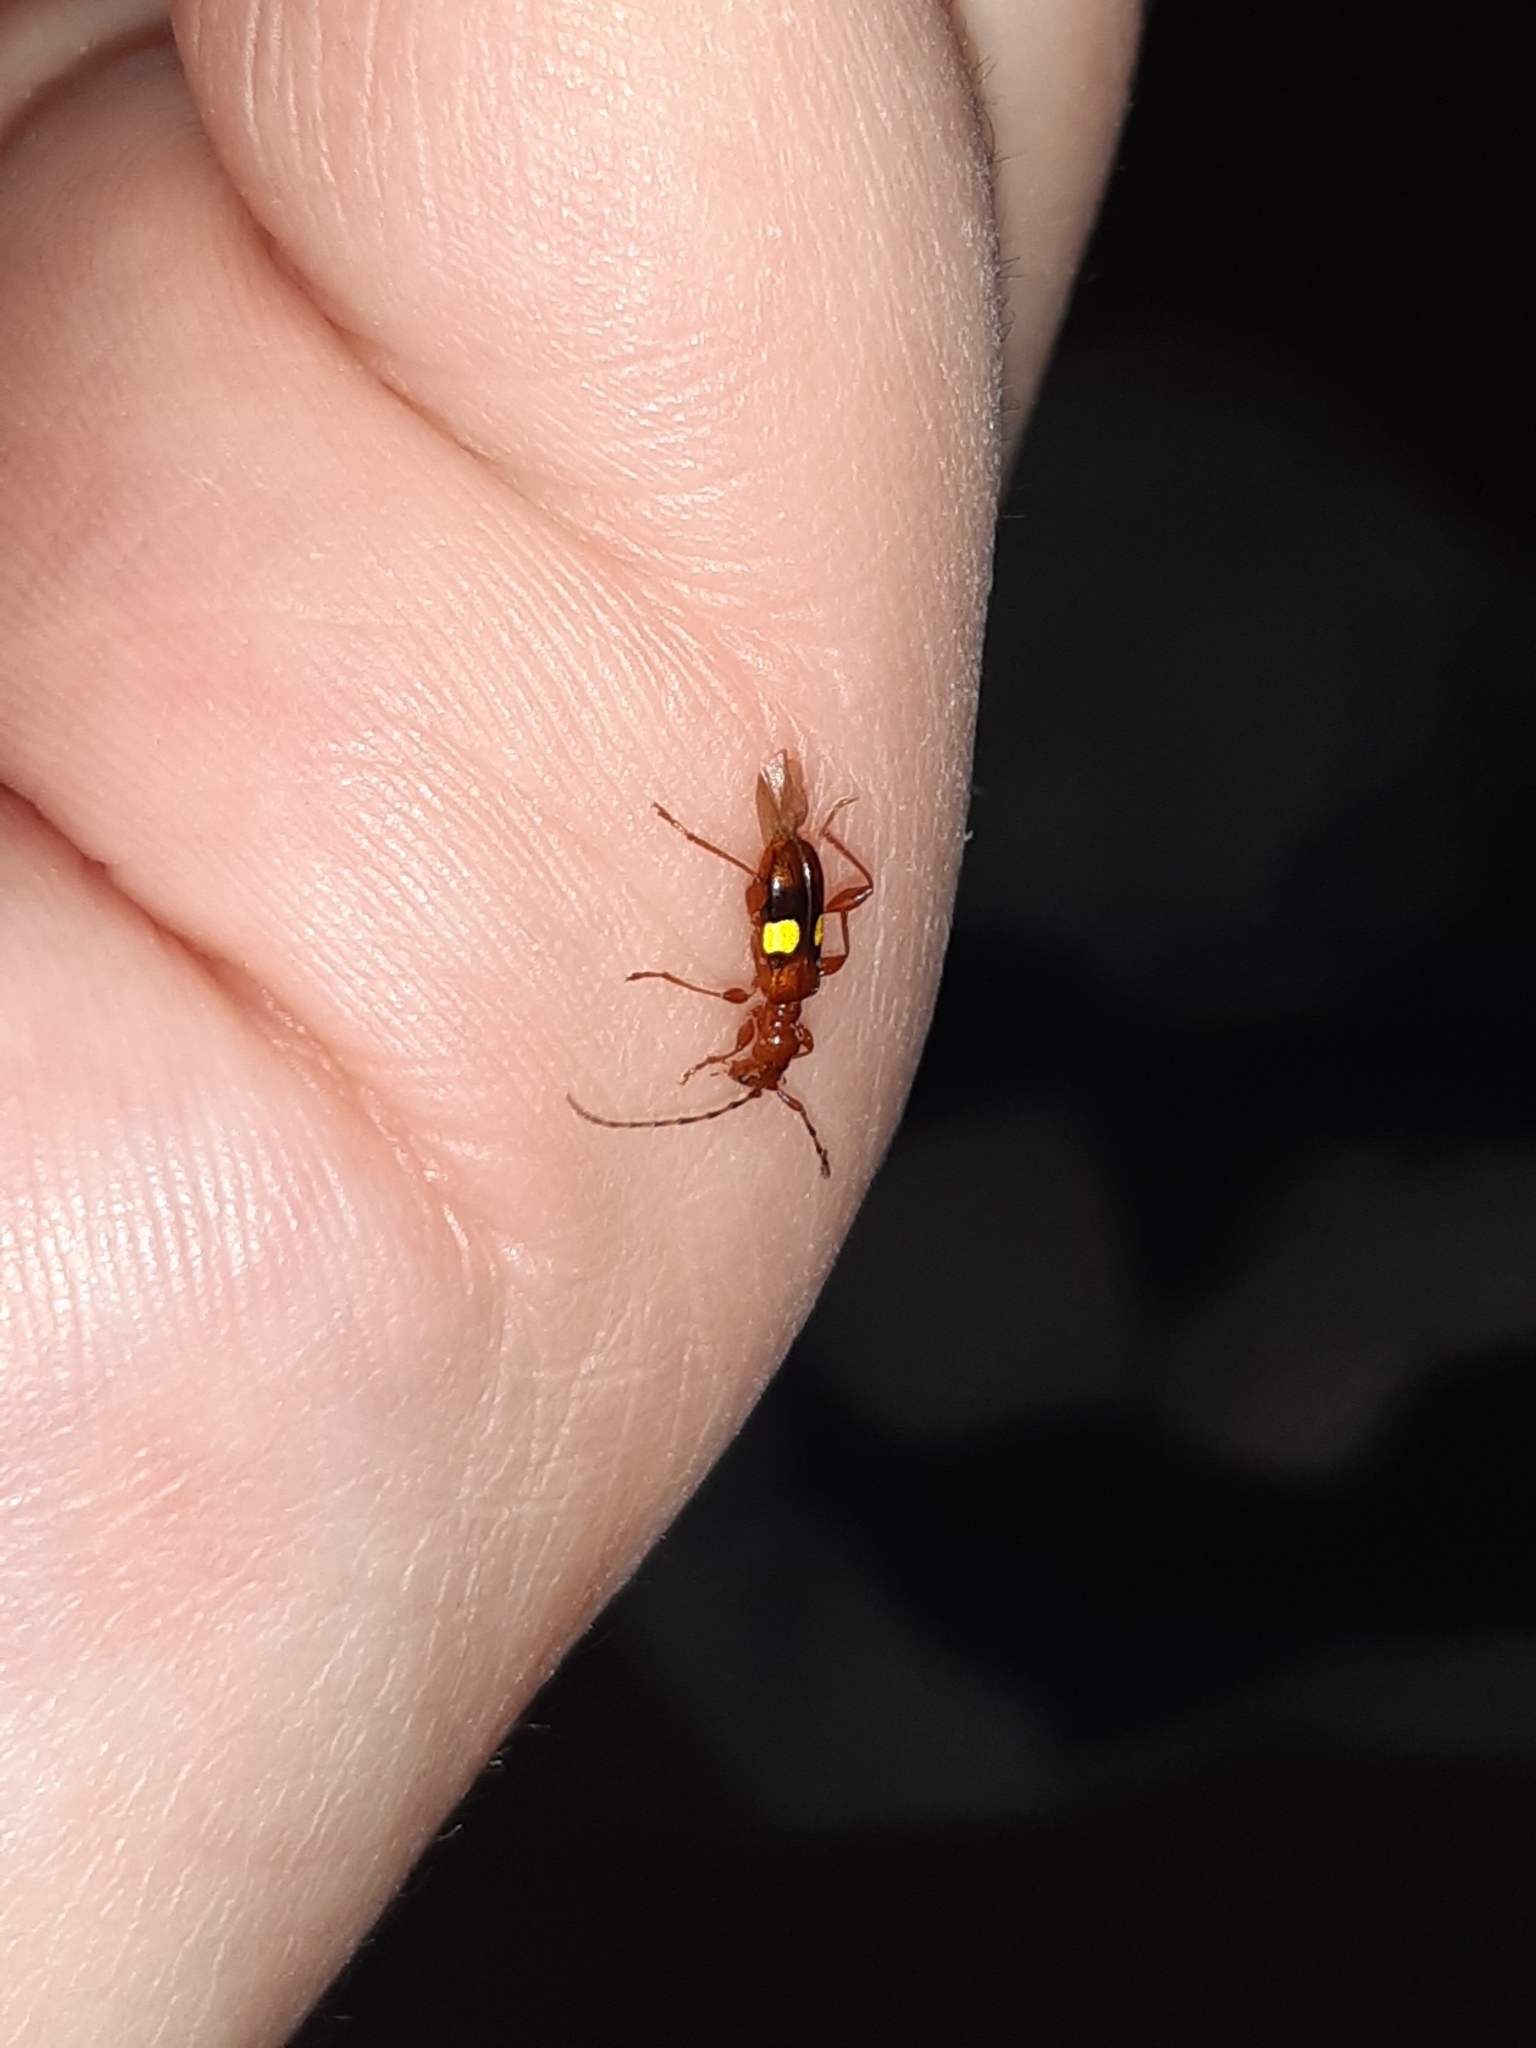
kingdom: Animalia
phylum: Arthropoda
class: Insecta
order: Coleoptera
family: Cerambycidae
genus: Zorion
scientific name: Zorion australe
